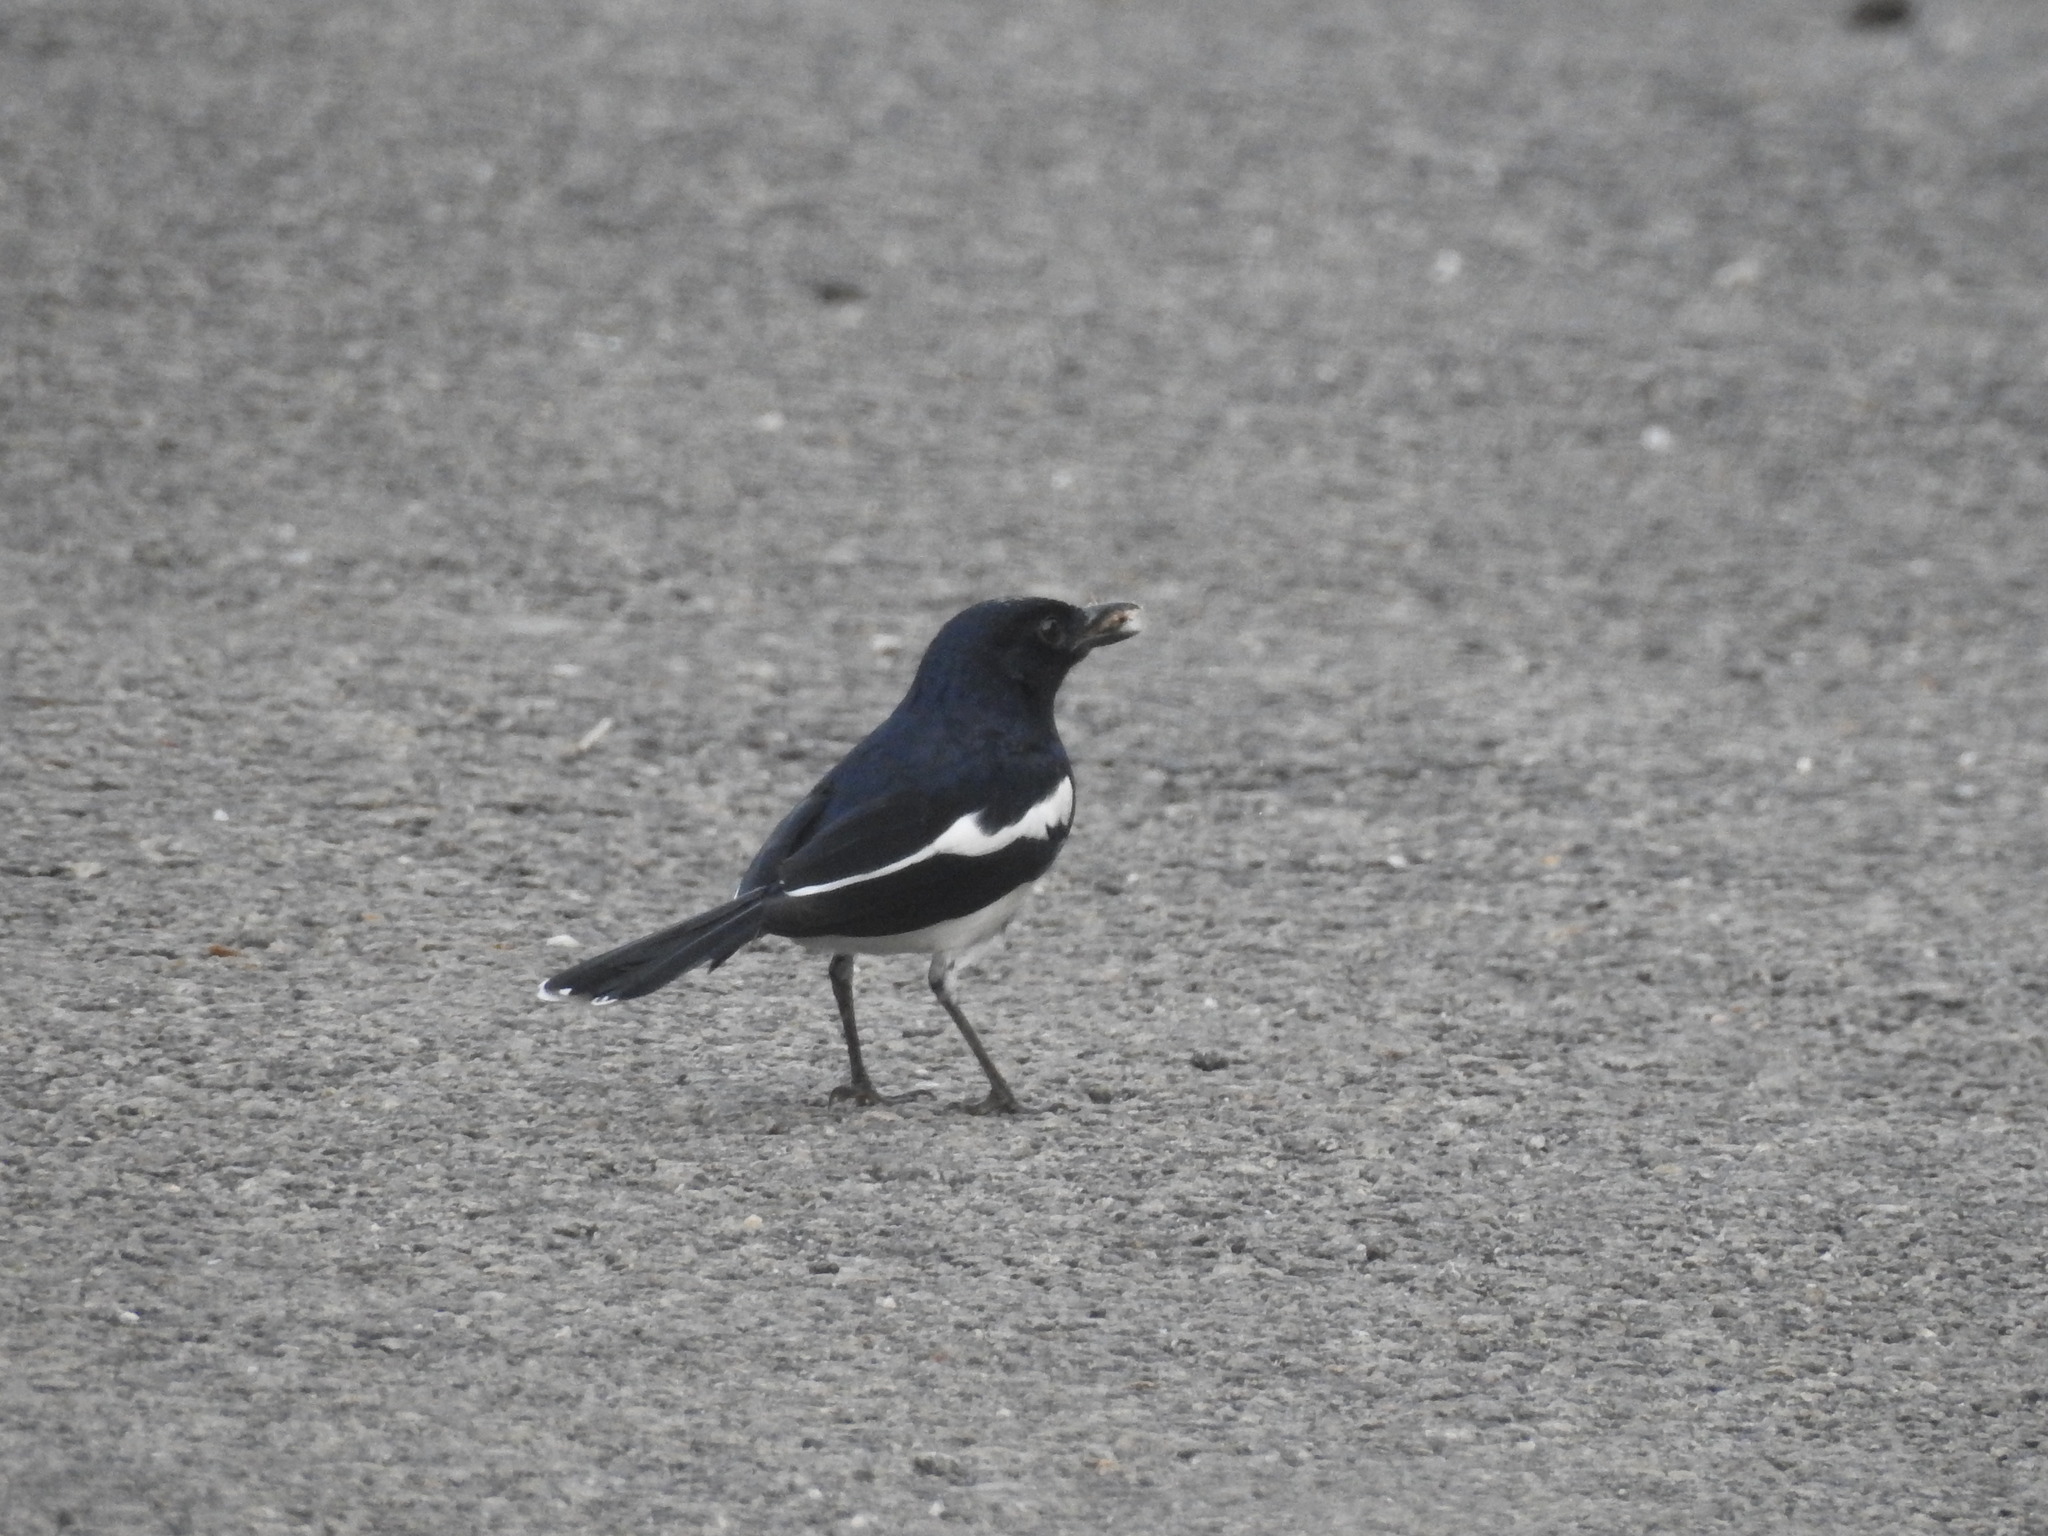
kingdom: Animalia
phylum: Chordata
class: Aves
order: Passeriformes
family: Muscicapidae
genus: Copsychus
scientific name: Copsychus saularis
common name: Oriental magpie-robin
